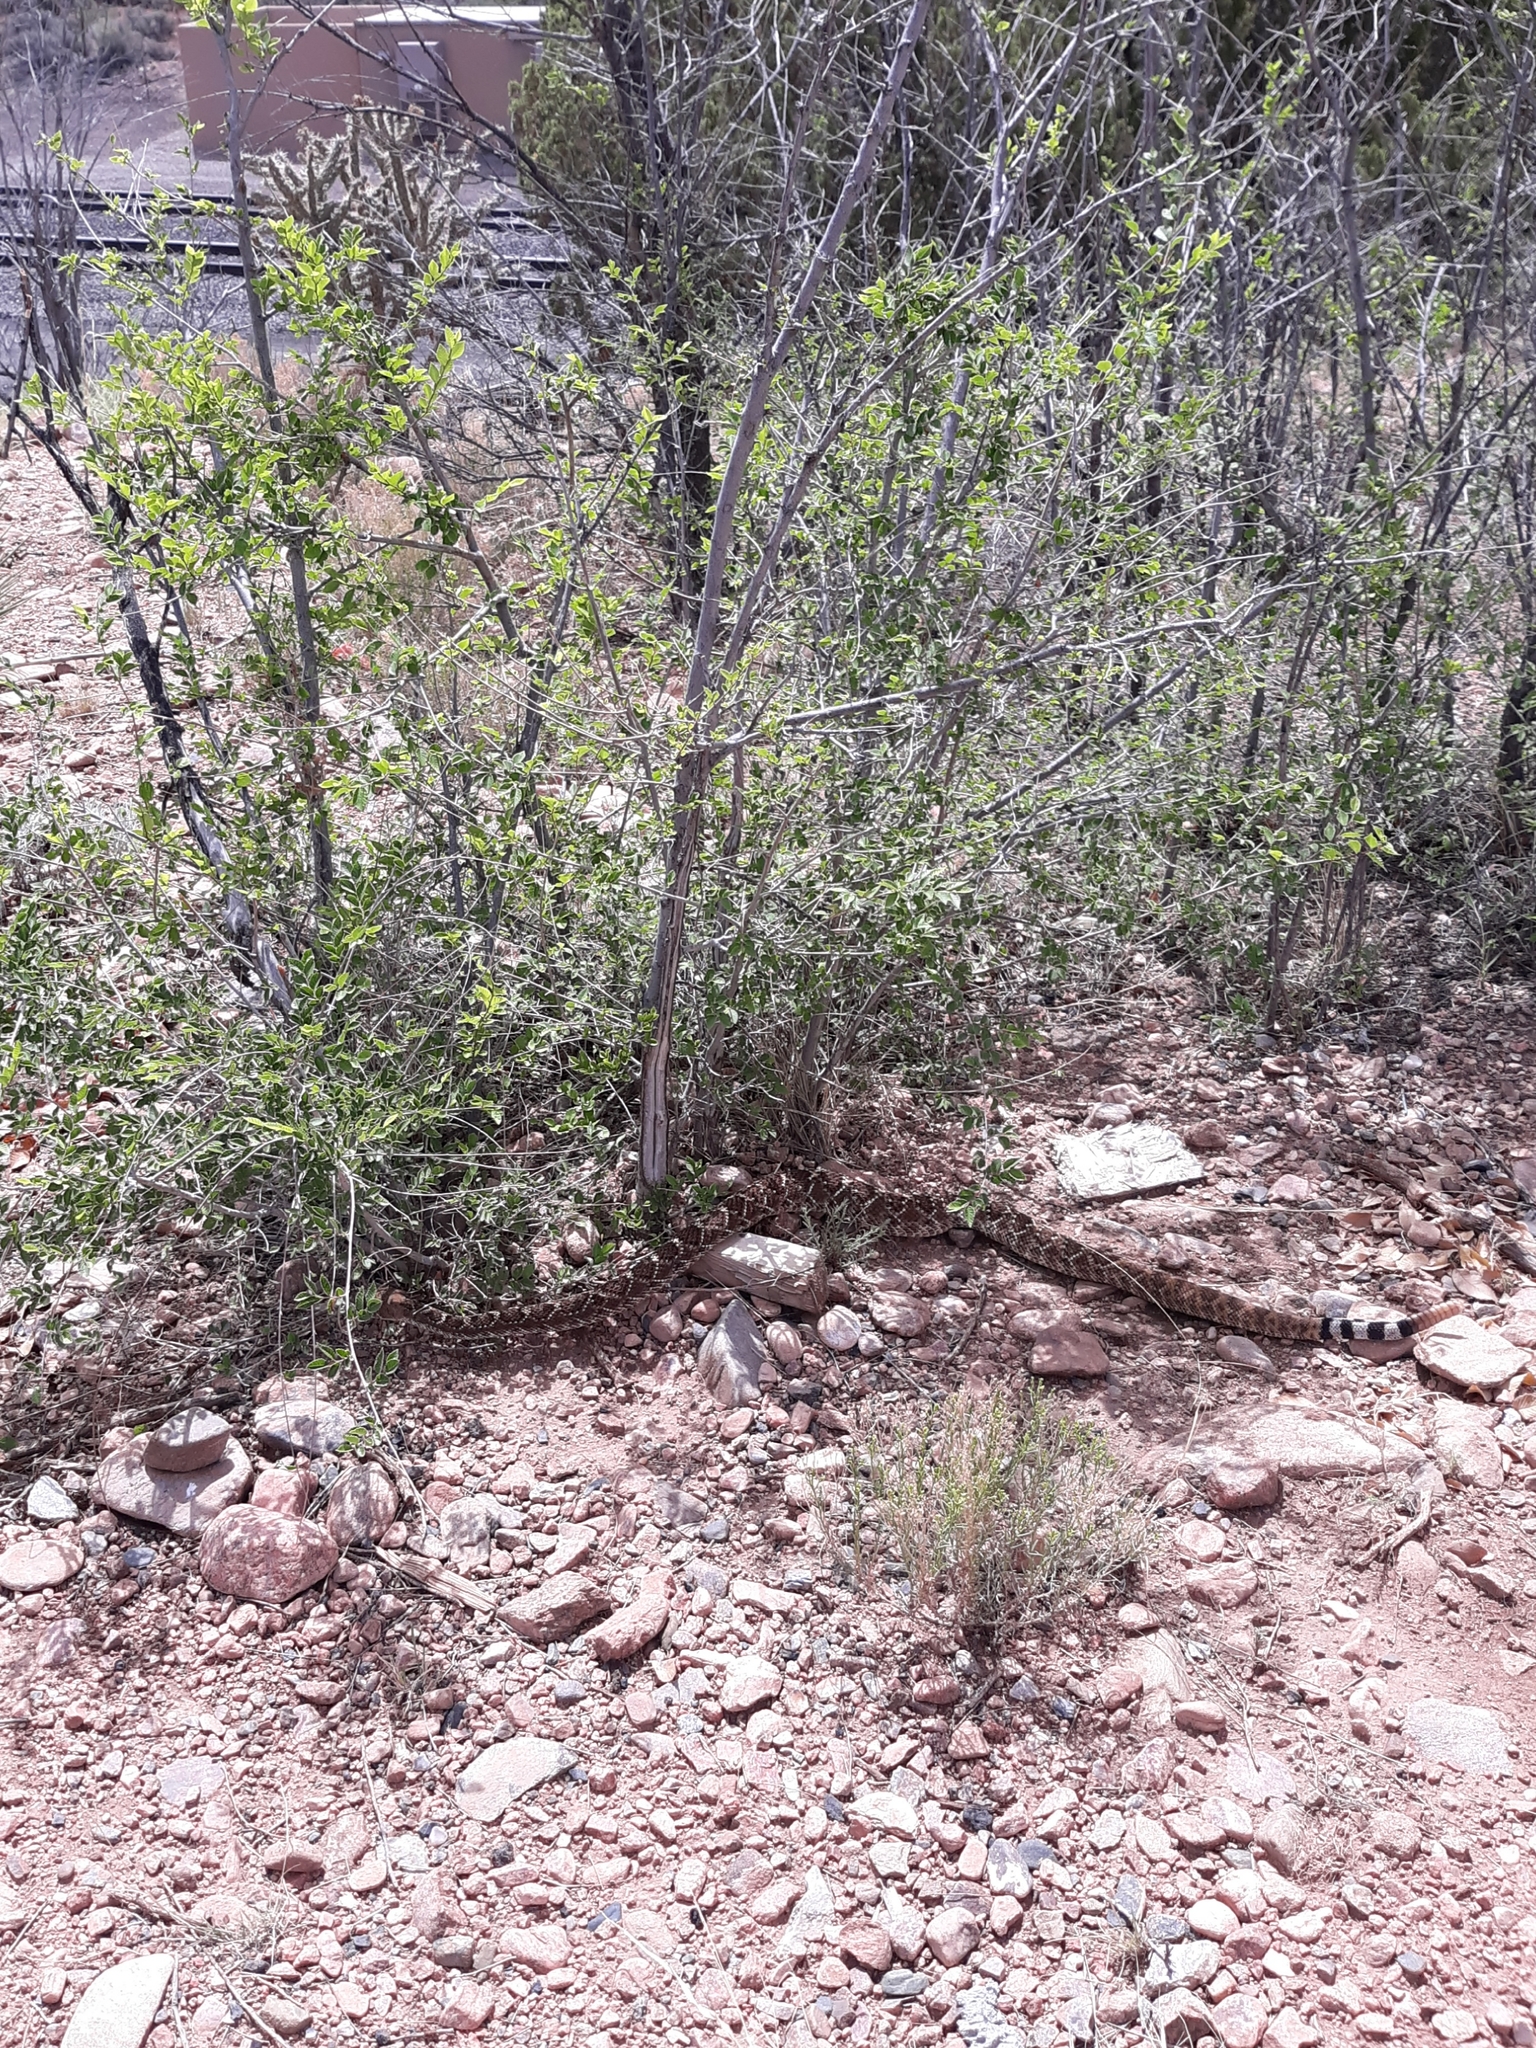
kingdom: Animalia
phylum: Chordata
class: Squamata
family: Viperidae
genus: Crotalus
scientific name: Crotalus atrox
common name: Western diamond-backed rattlesnake
